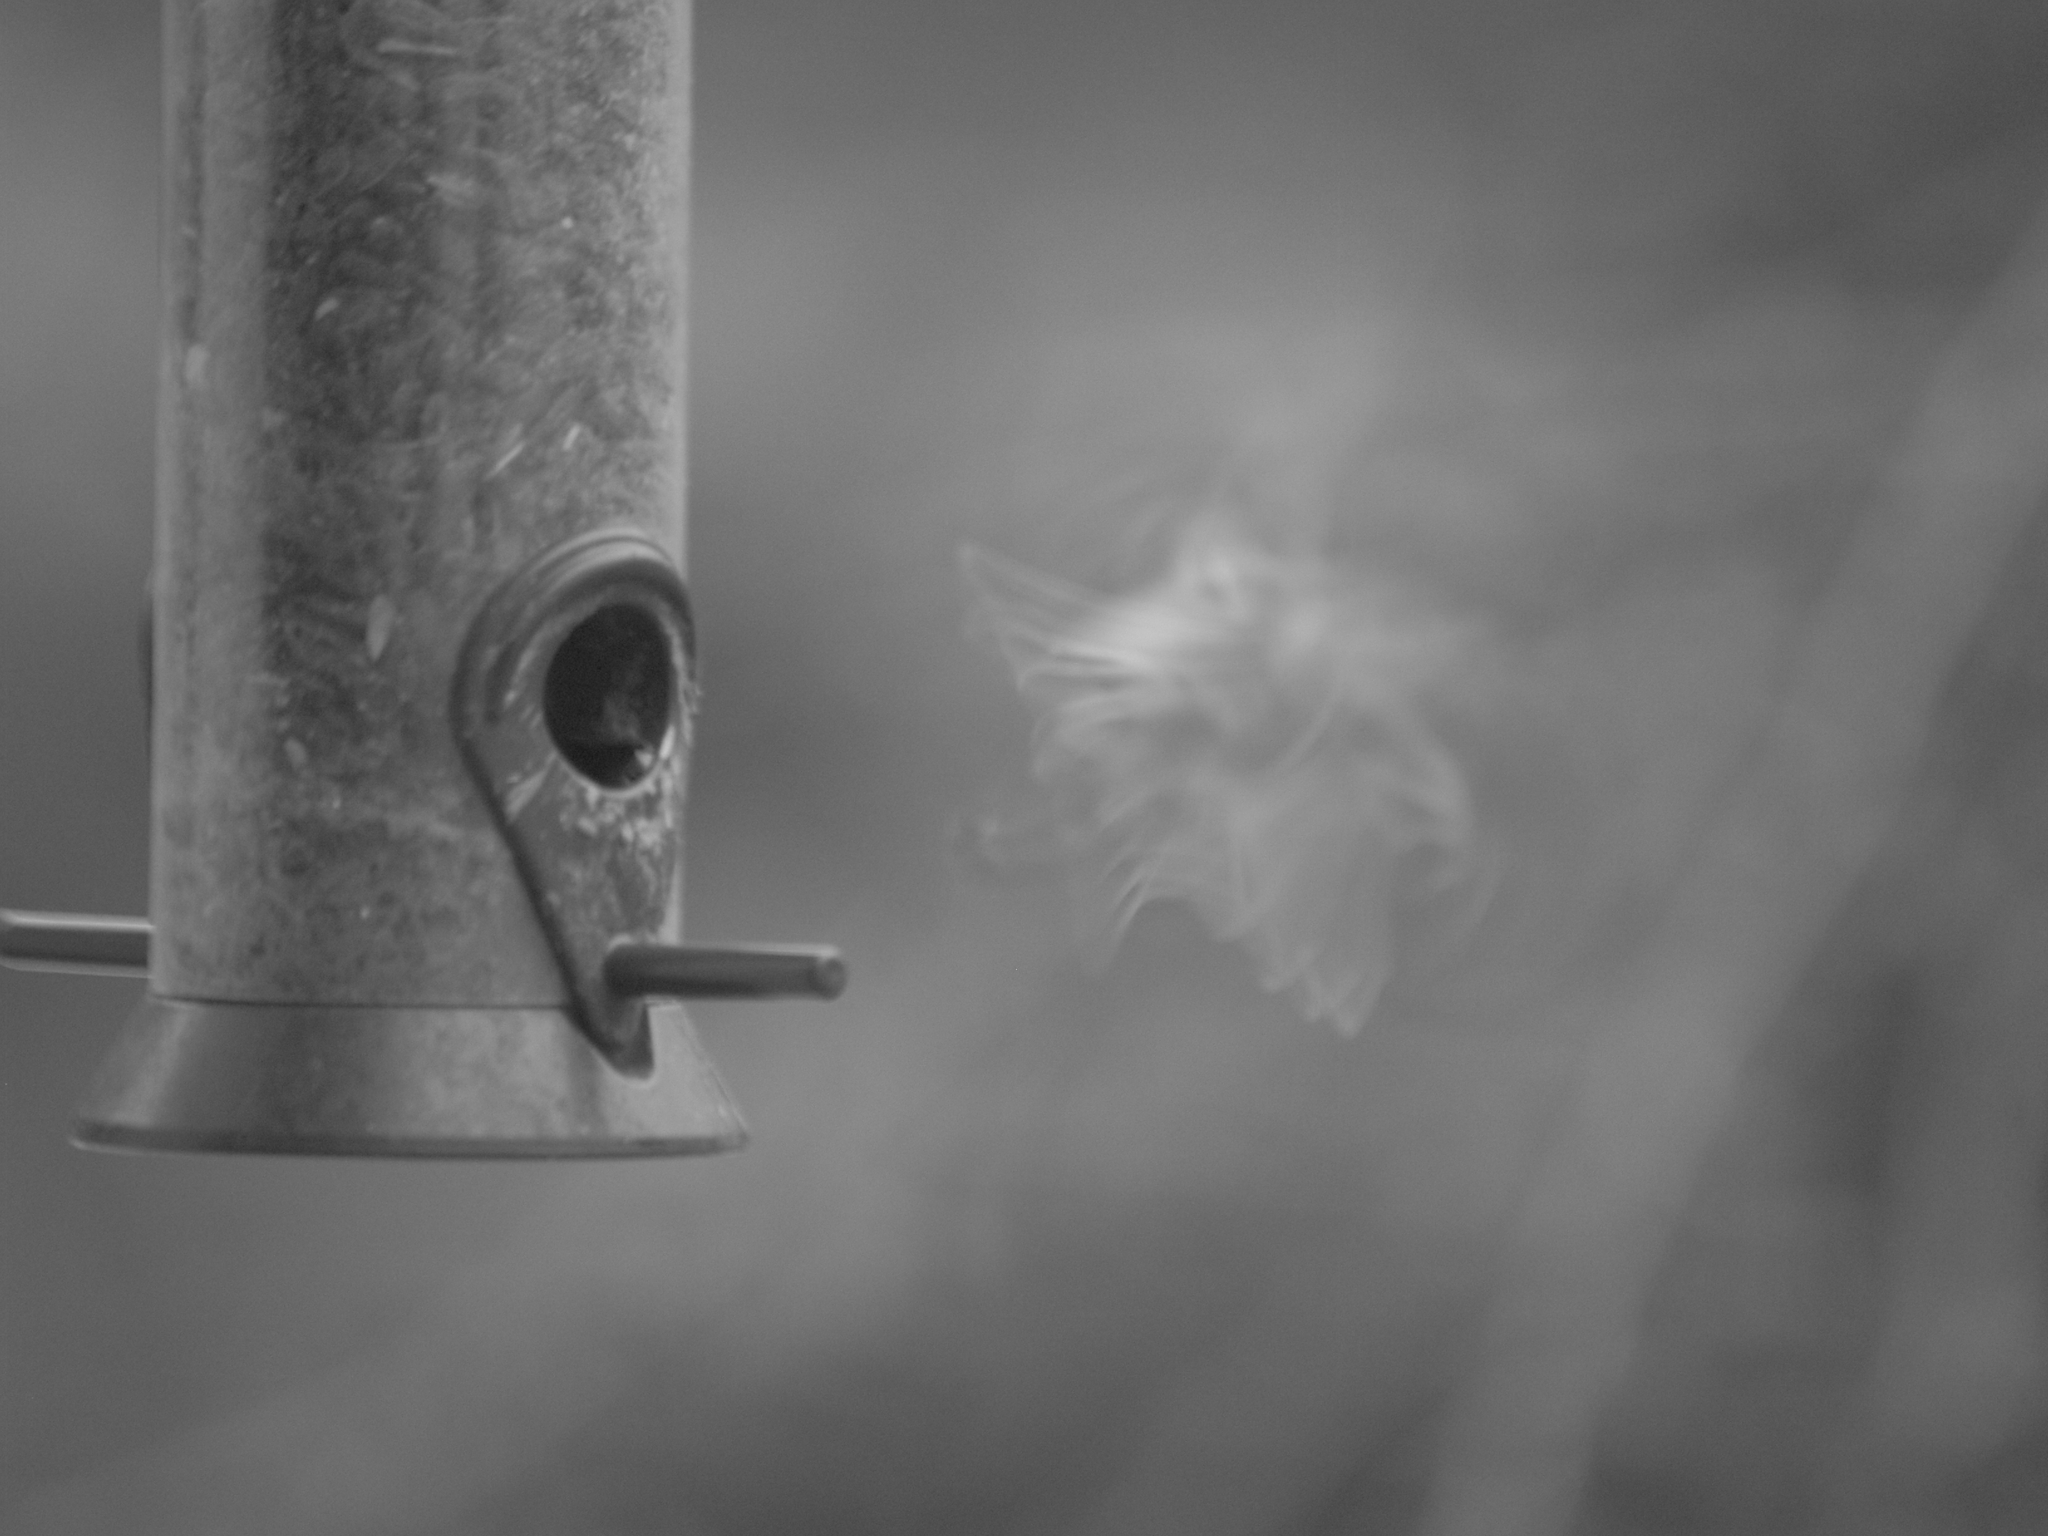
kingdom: Animalia
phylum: Chordata
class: Aves
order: Passeriformes
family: Paridae
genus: Poecile
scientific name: Poecile atricapillus
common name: Black-capped chickadee
